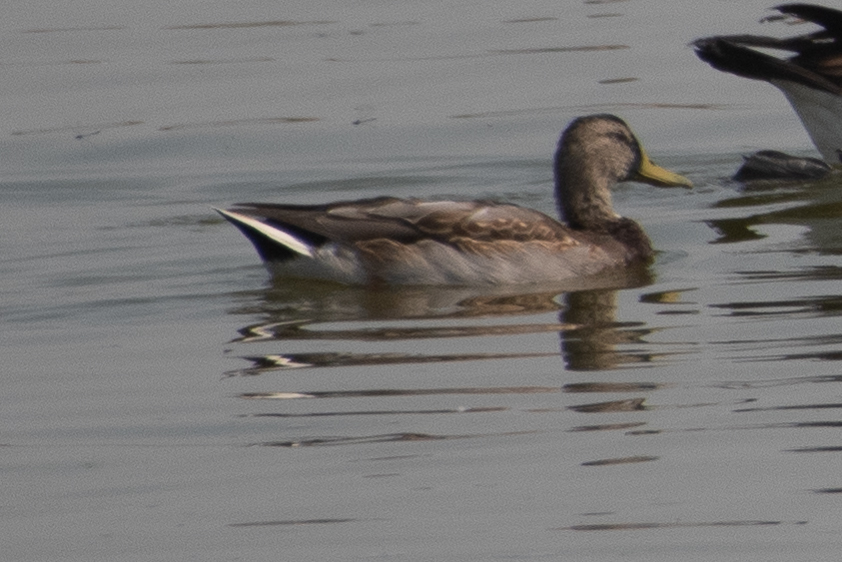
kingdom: Animalia
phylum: Chordata
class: Aves
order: Anseriformes
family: Anatidae
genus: Anas
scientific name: Anas platyrhynchos
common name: Mallard
